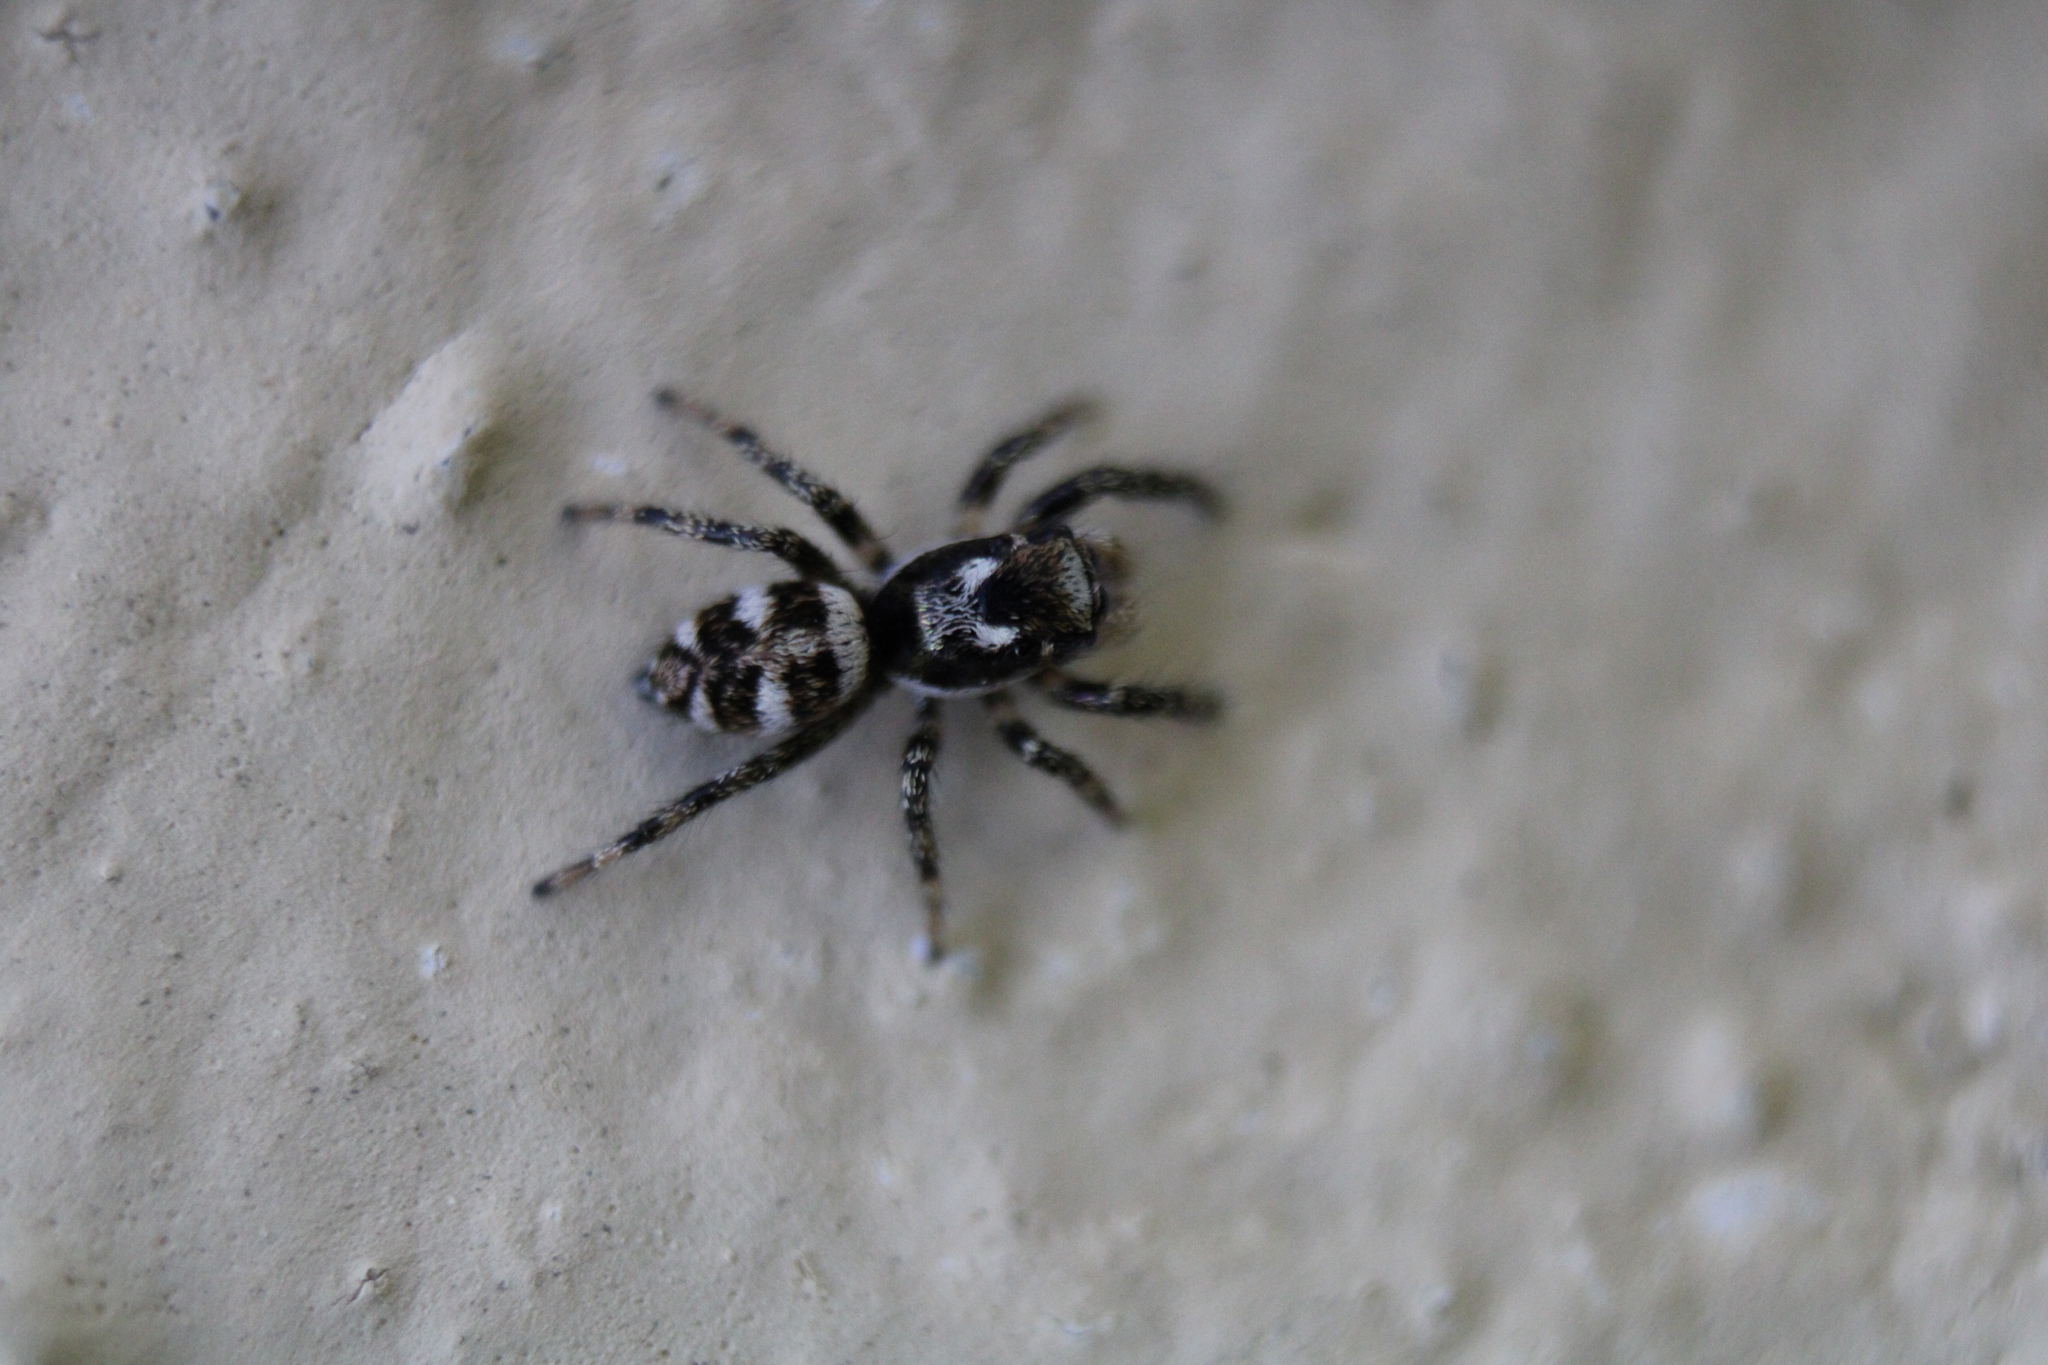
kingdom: Animalia
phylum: Arthropoda
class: Arachnida
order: Araneae
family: Salticidae
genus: Salticus
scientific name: Salticus scenicus
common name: Zebra jumper
